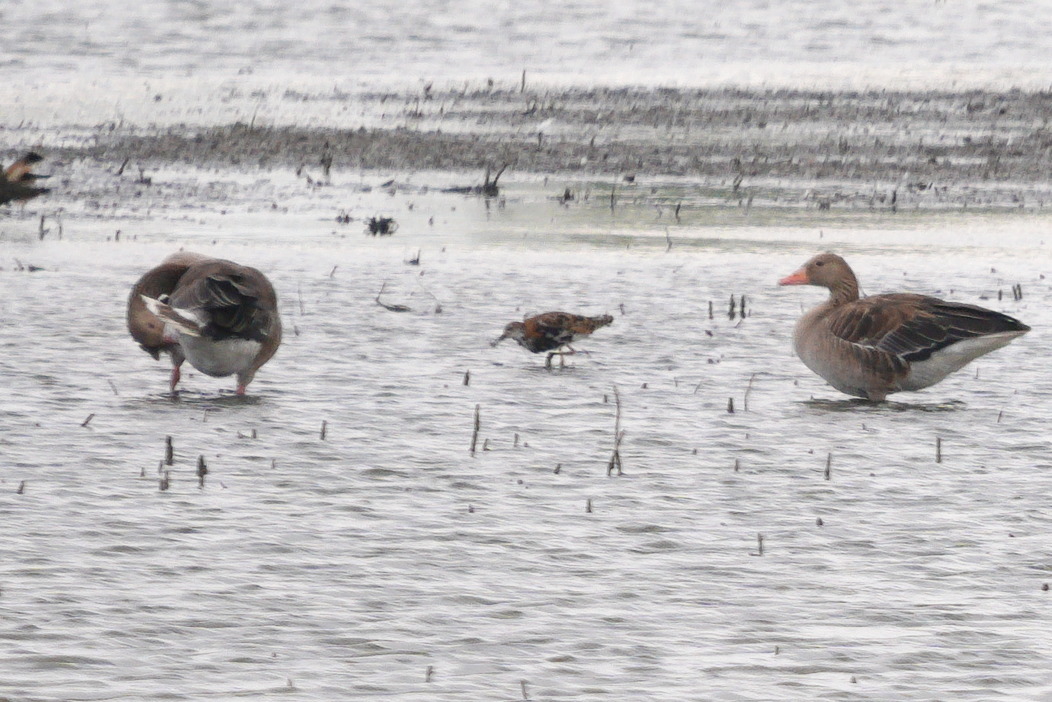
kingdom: Animalia
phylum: Chordata
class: Aves
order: Charadriiformes
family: Scolopacidae
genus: Calidris
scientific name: Calidris pugnax
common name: Ruff
